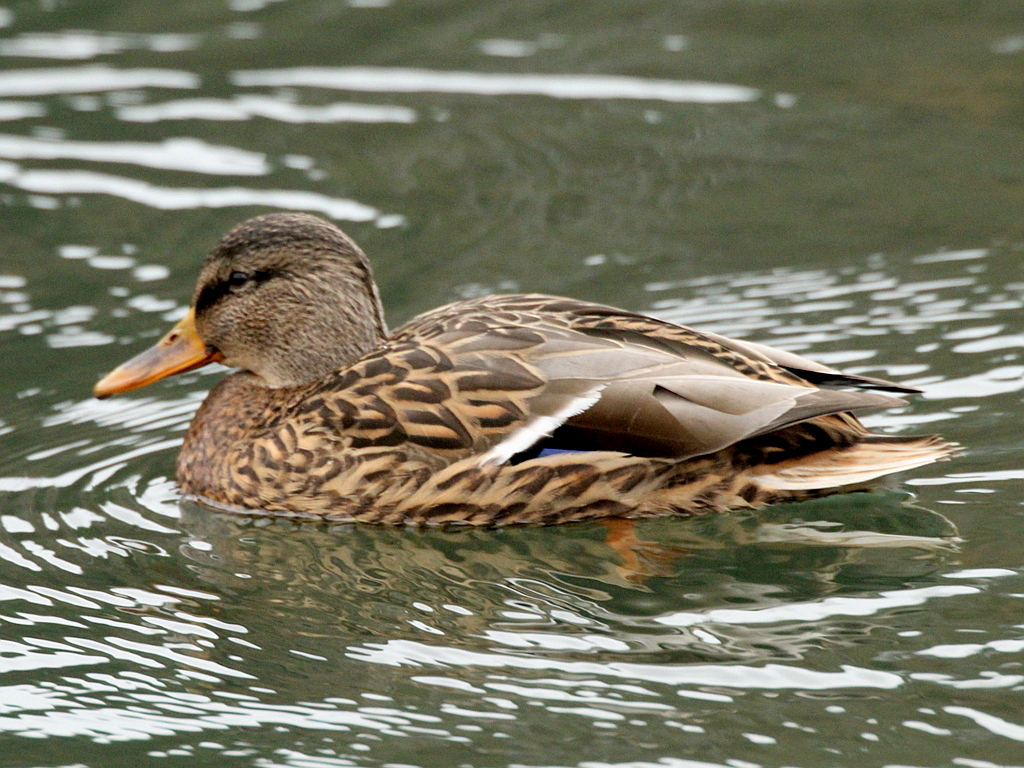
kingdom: Animalia
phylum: Chordata
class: Aves
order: Anseriformes
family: Anatidae
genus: Anas
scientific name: Anas platyrhynchos
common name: Mallard
